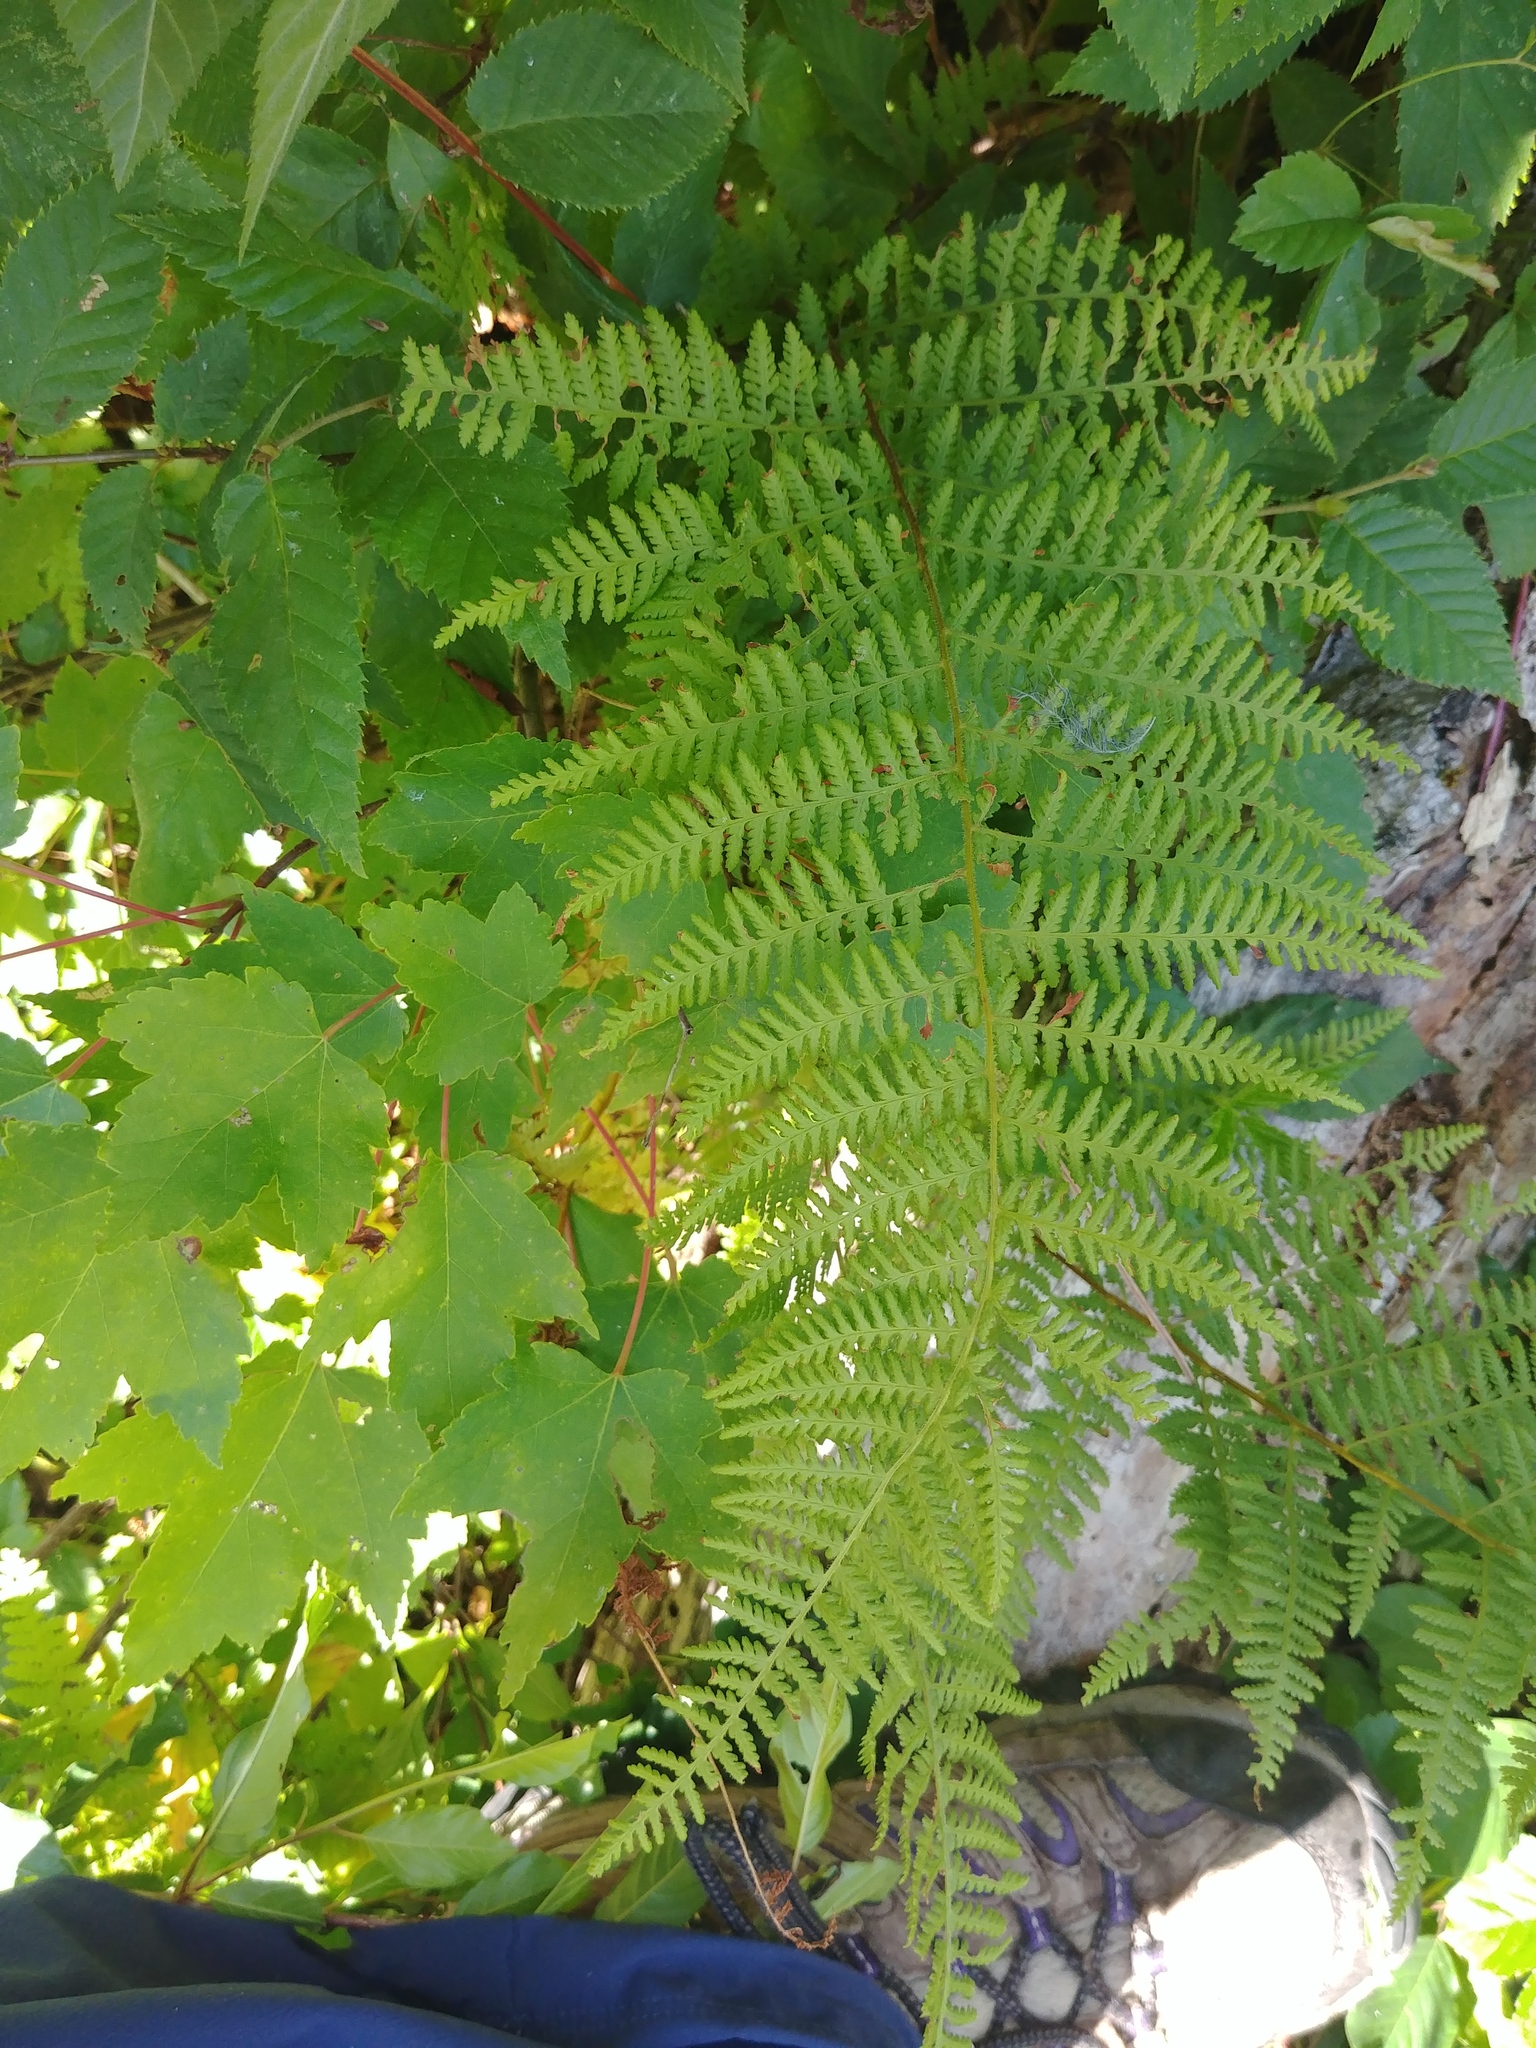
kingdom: Plantae
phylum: Tracheophyta
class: Polypodiopsida
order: Polypodiales
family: Dennstaedtiaceae
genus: Sitobolium
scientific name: Sitobolium punctilobum
